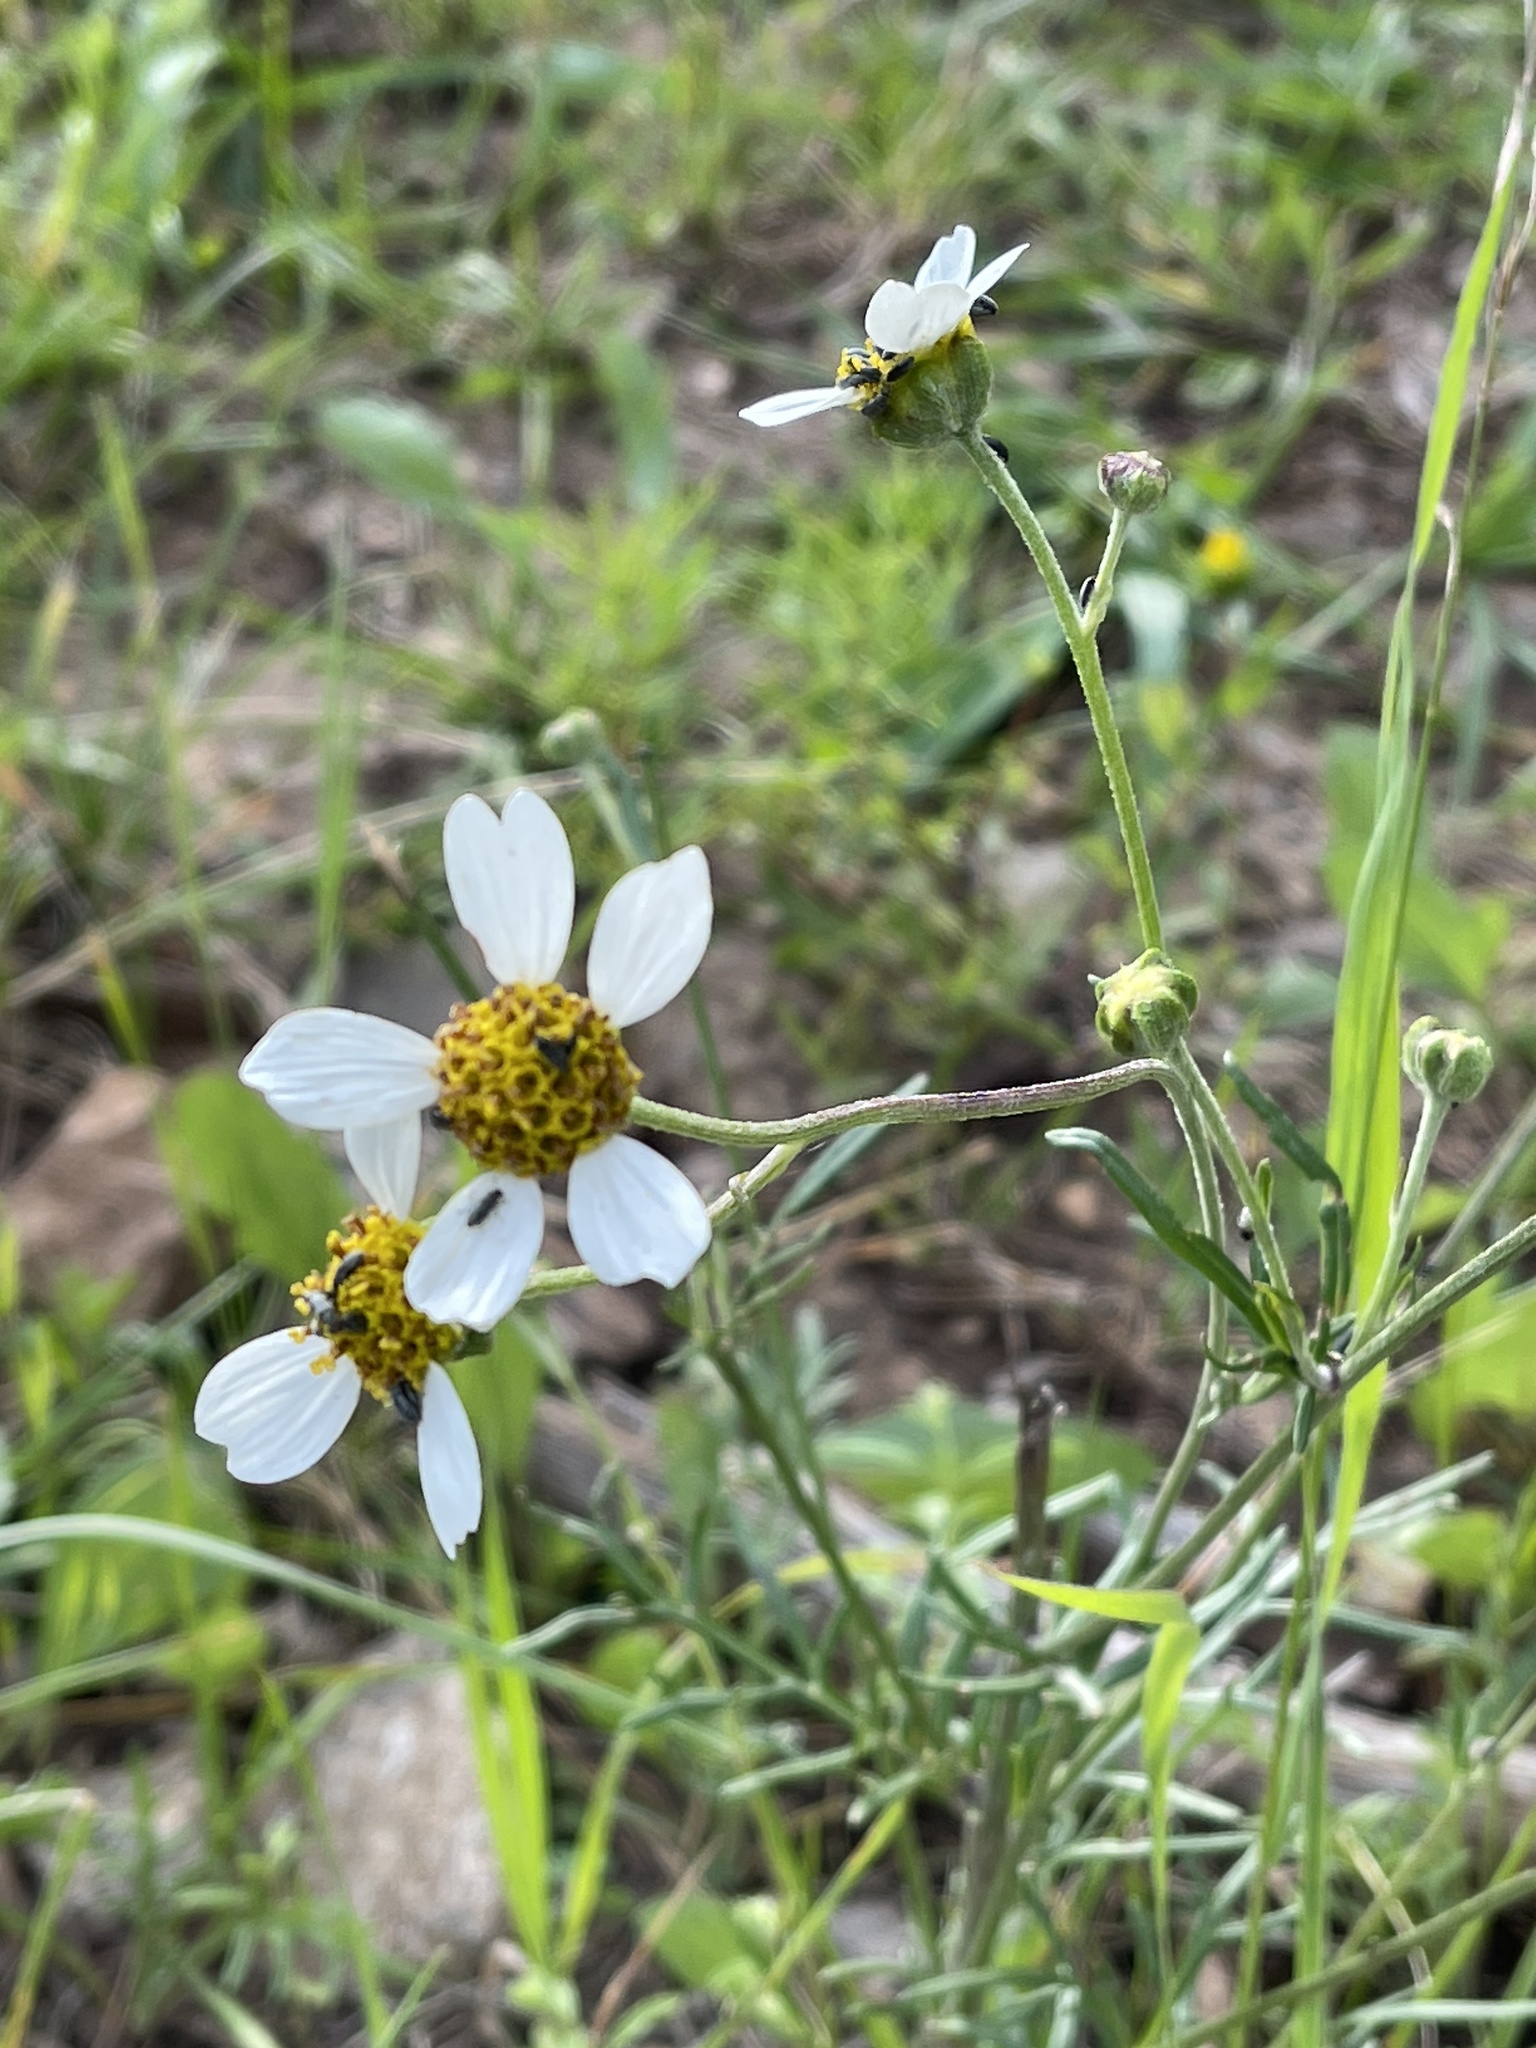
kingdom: Plantae
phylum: Tracheophyta
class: Magnoliopsida
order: Asterales
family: Asteraceae
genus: Bidens
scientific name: Bidens alba
